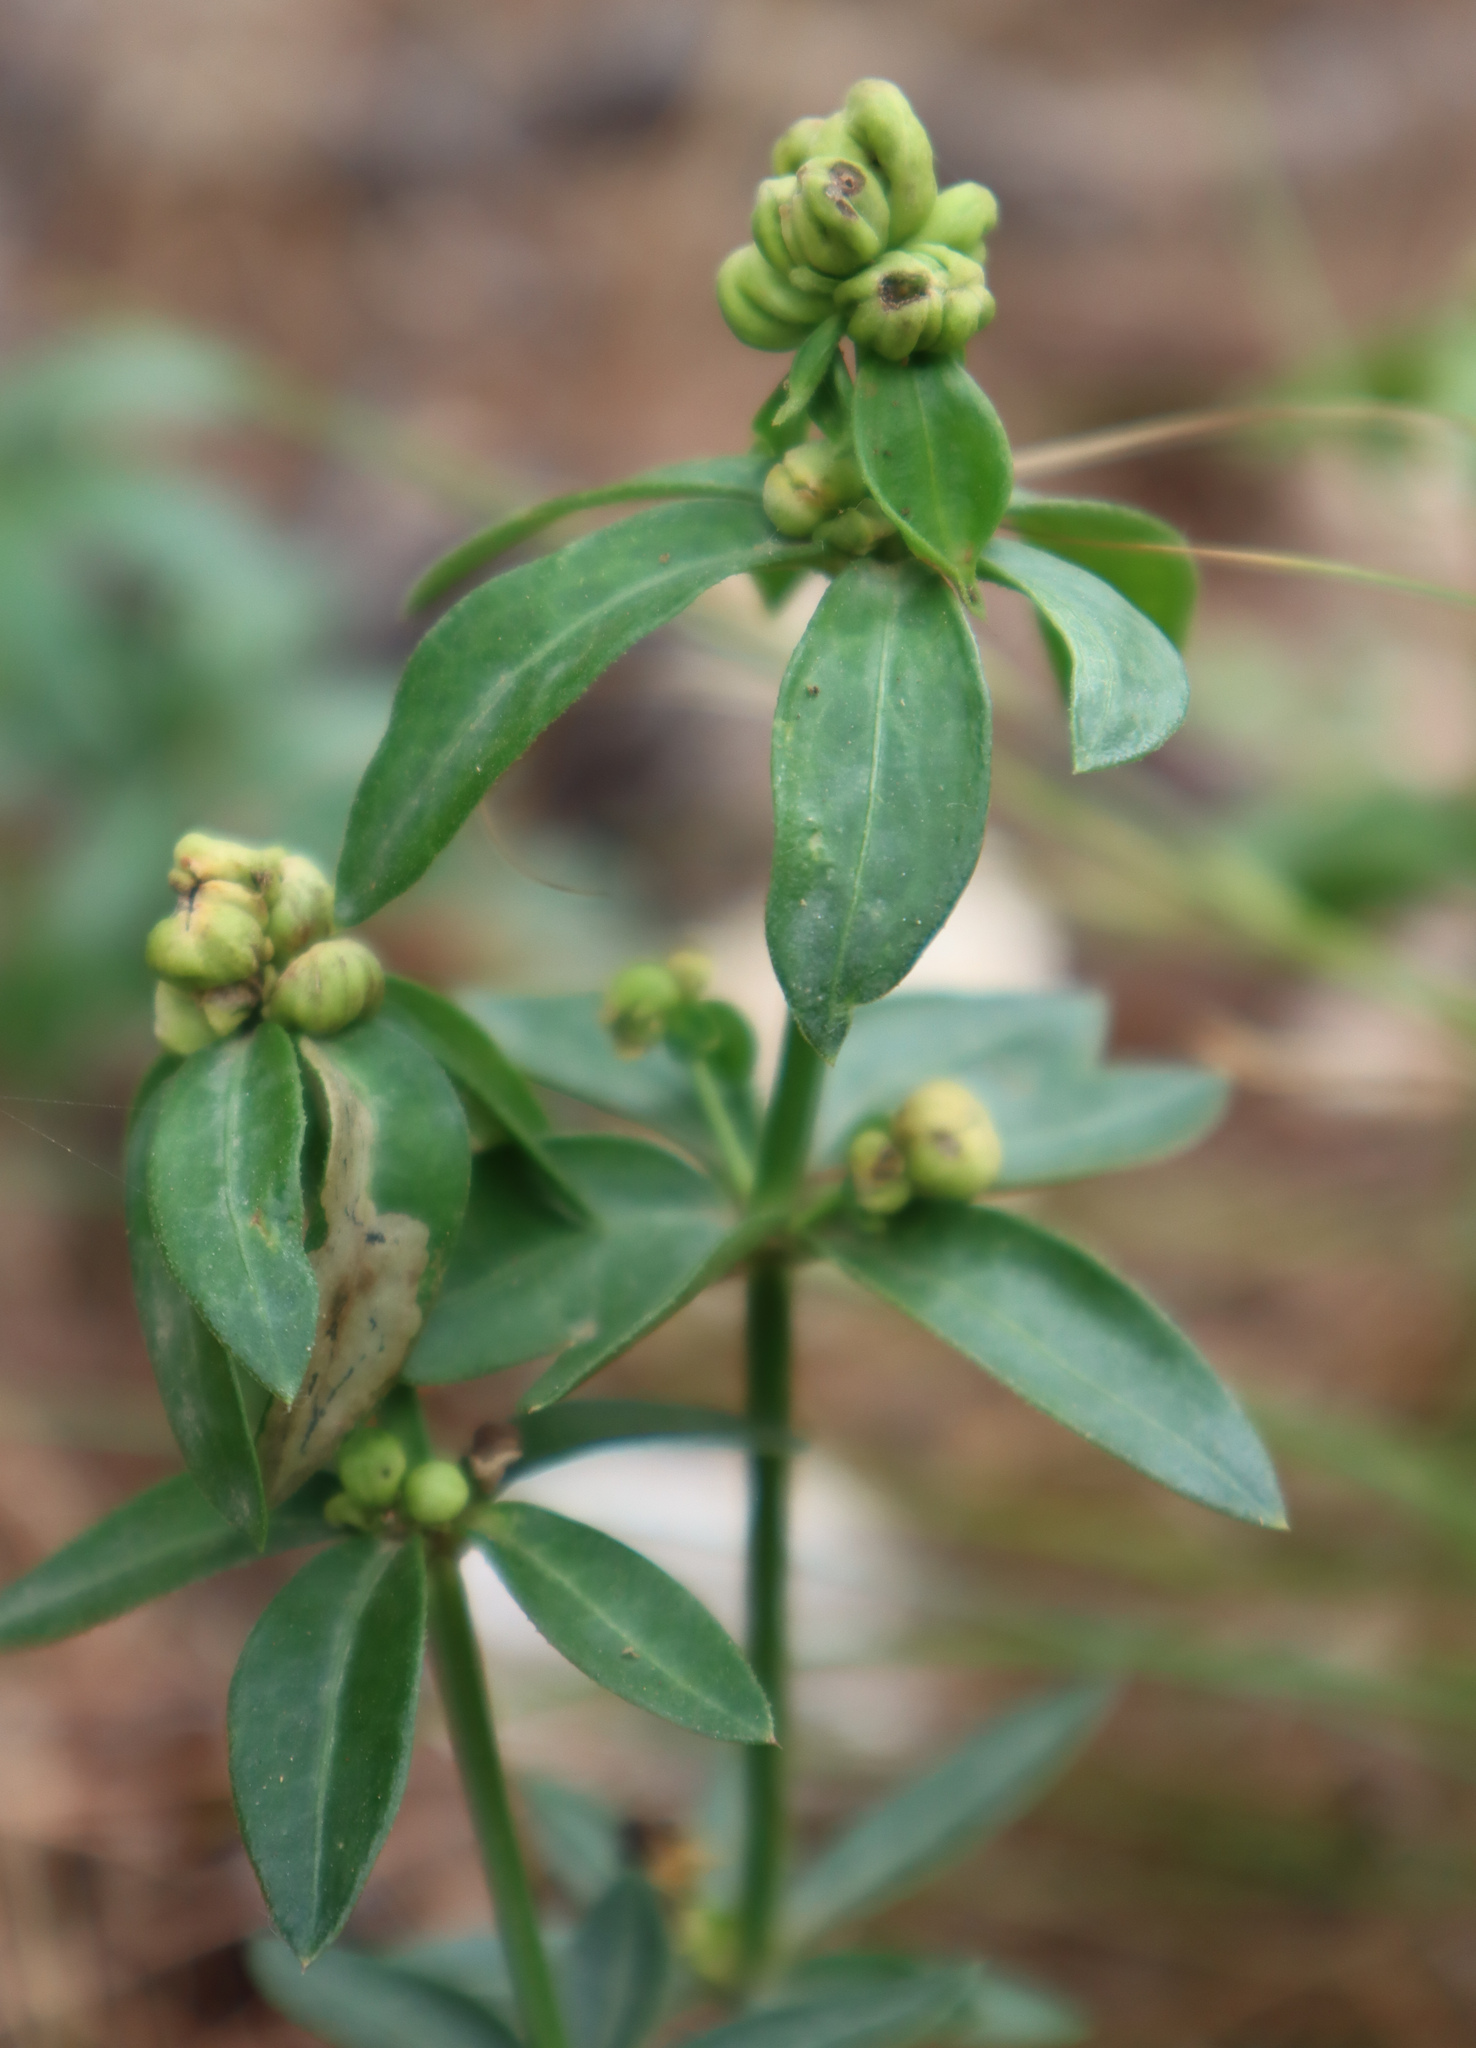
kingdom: Plantae
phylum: Tracheophyta
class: Magnoliopsida
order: Gentianales
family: Rubiaceae
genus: Rubia
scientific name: Rubia peregrina
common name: Wild madder
